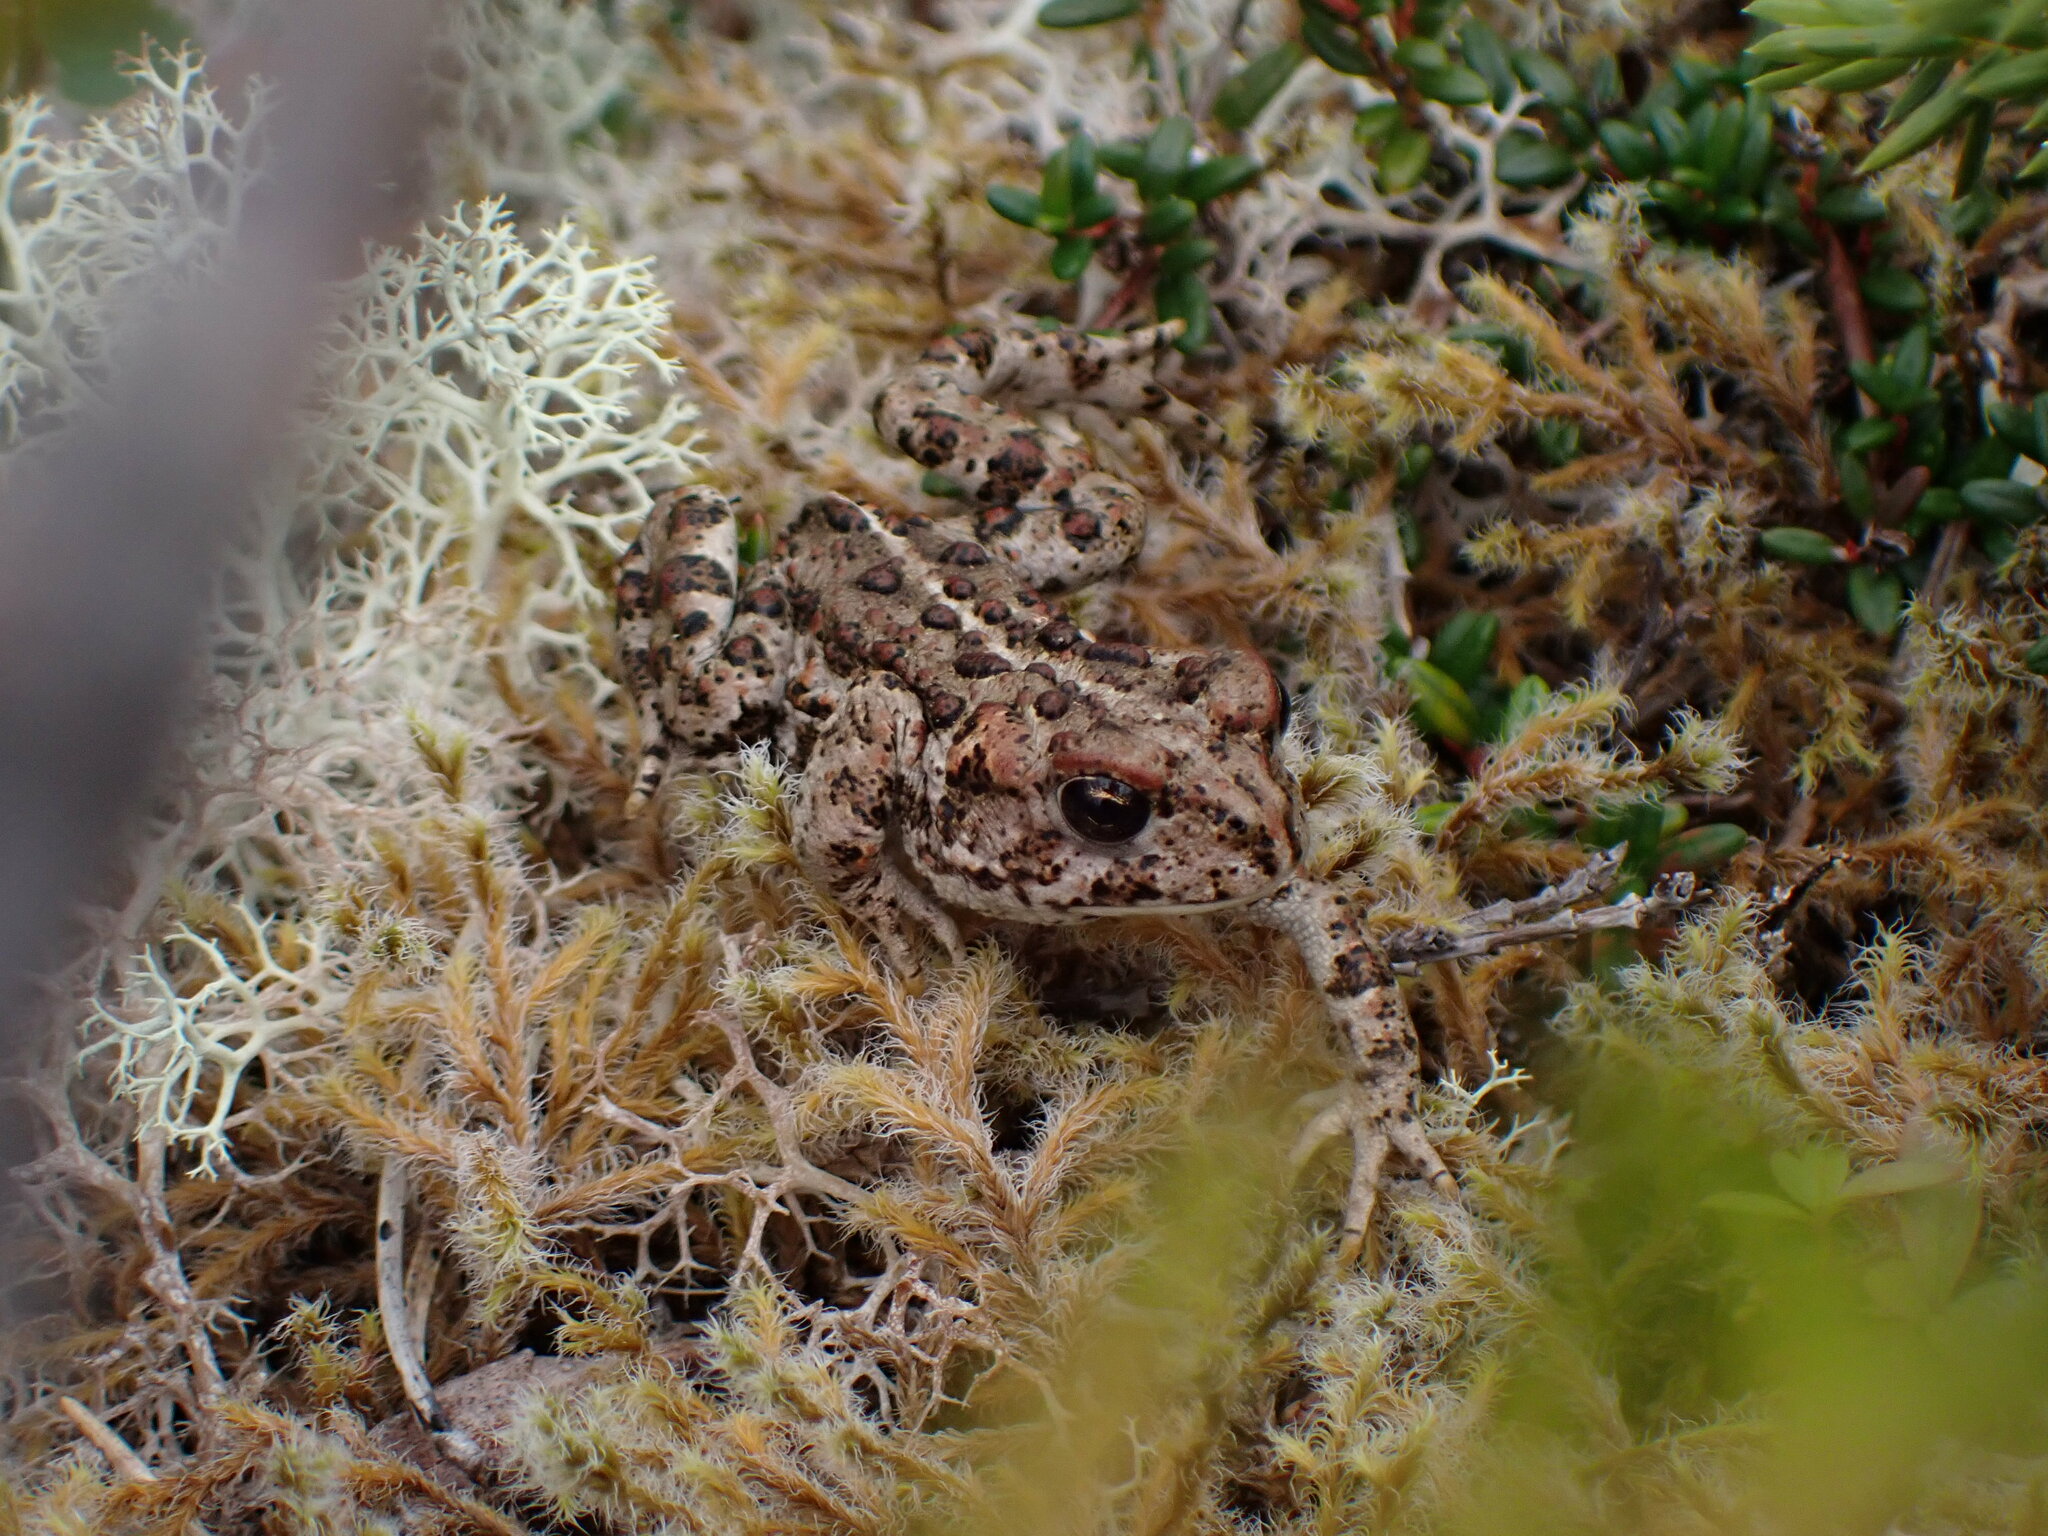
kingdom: Animalia
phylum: Chordata
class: Amphibia
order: Anura
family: Bufonidae
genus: Anaxyrus
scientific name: Anaxyrus boreas
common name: Western toad
